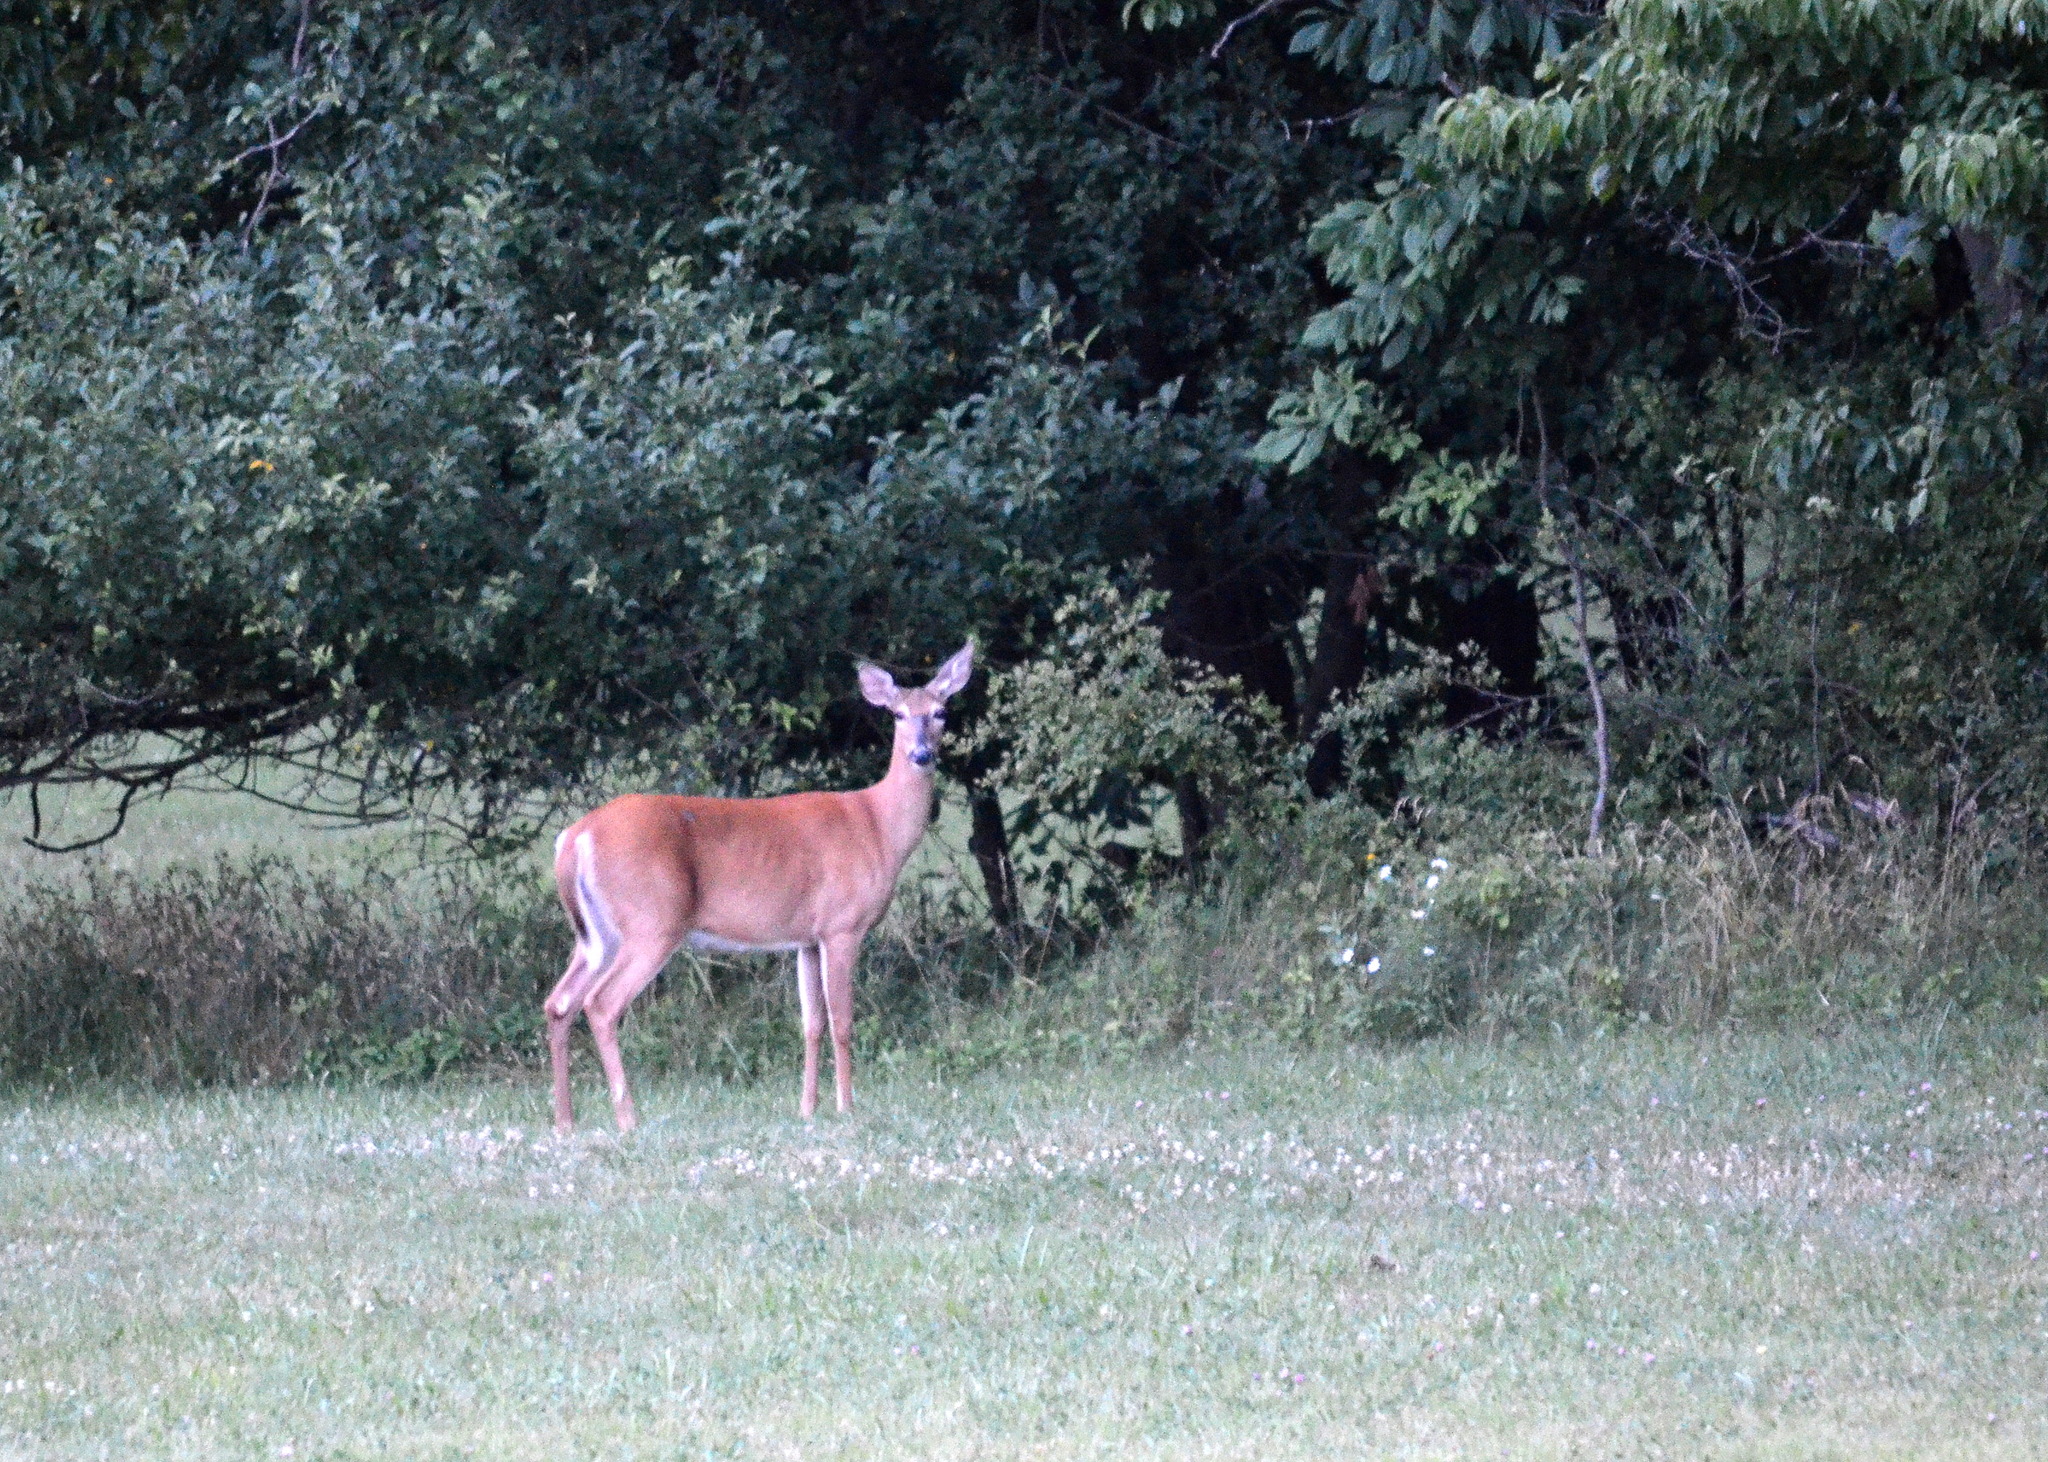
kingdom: Animalia
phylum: Chordata
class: Mammalia
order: Artiodactyla
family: Cervidae
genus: Odocoileus
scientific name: Odocoileus virginianus
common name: White-tailed deer
